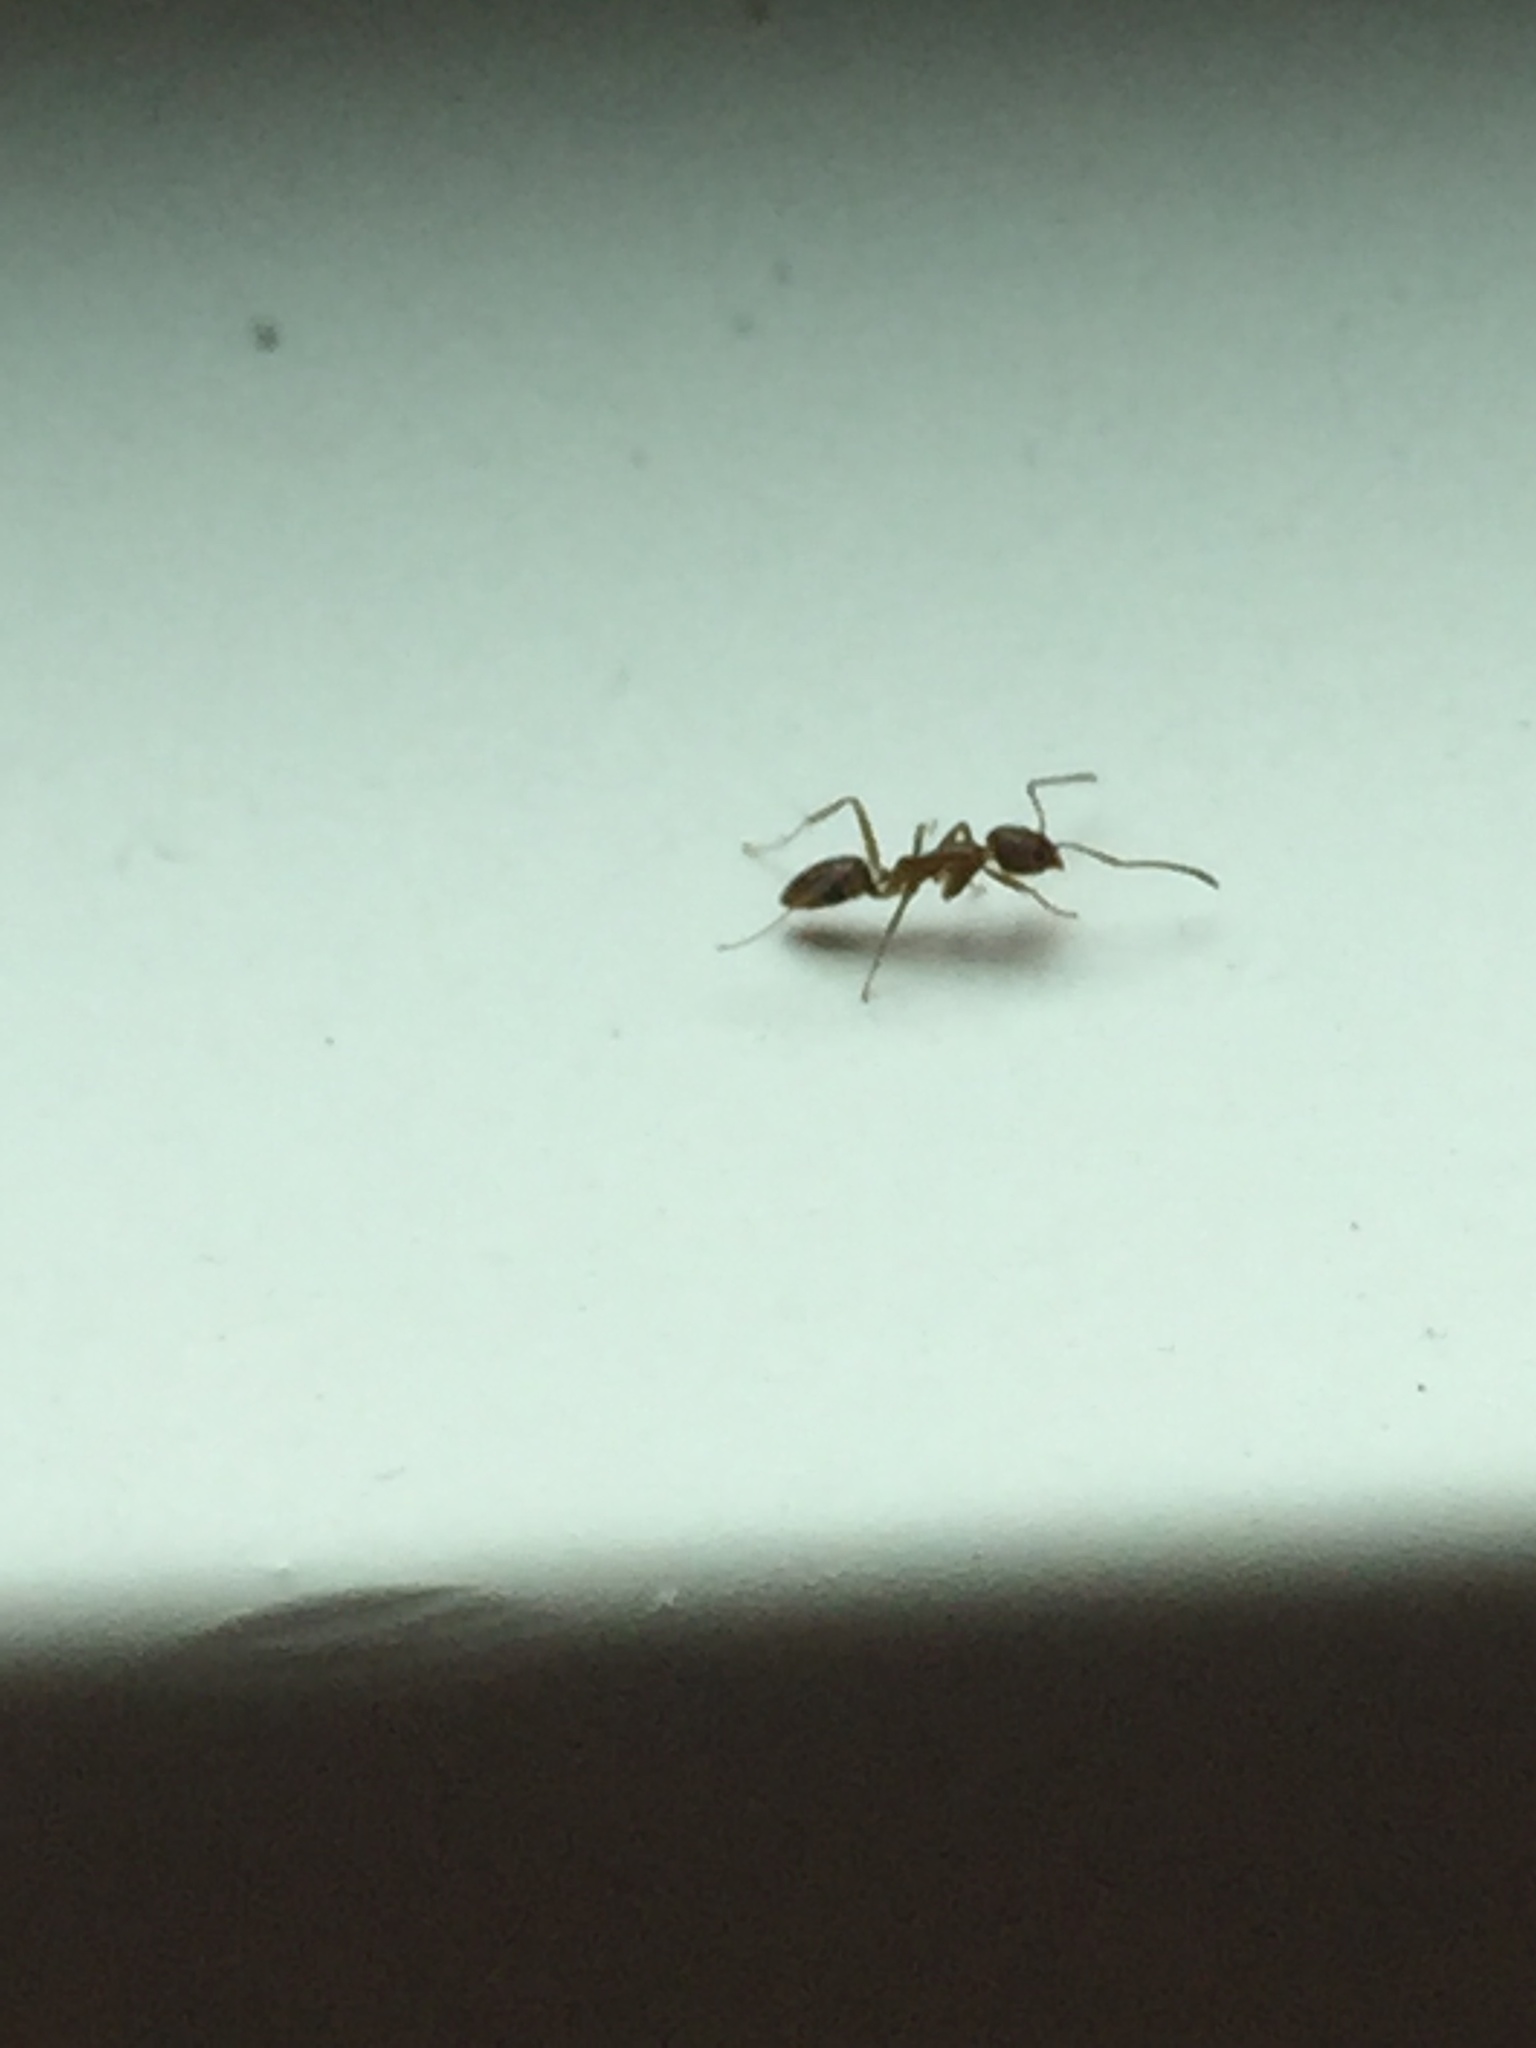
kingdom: Animalia
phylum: Arthropoda
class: Insecta
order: Hymenoptera
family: Formicidae
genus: Linepithema
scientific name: Linepithema humile
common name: Argentine ant
